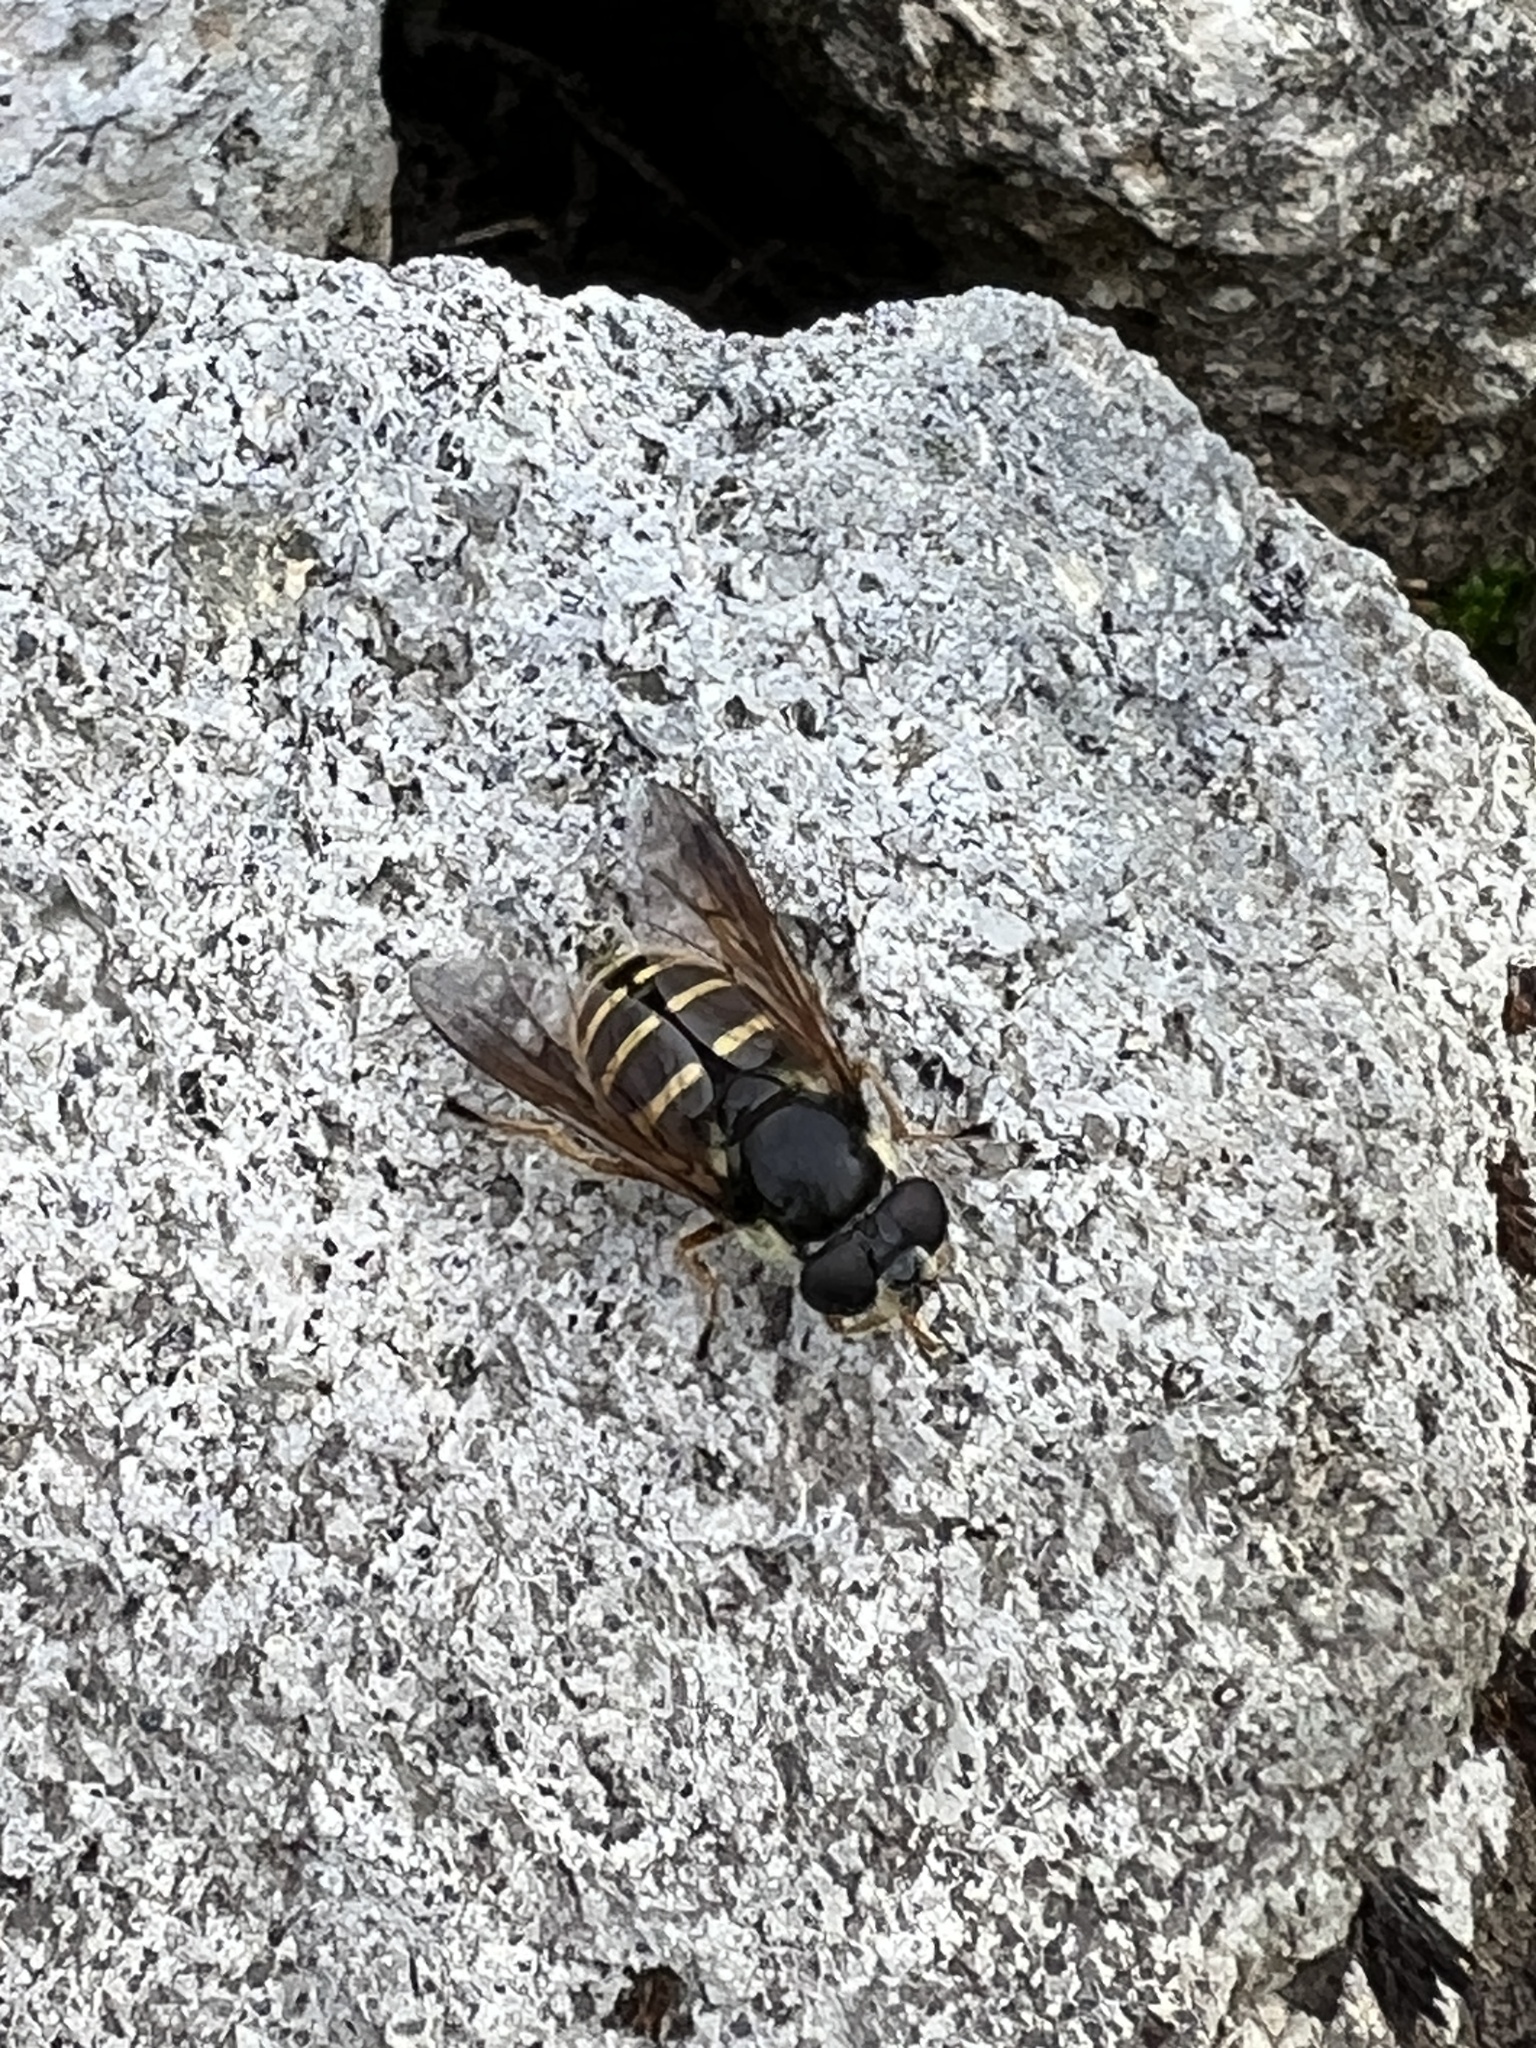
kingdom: Animalia
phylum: Arthropoda
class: Insecta
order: Diptera
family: Syrphidae
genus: Sericomyia
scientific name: Sericomyia chalcopyga
